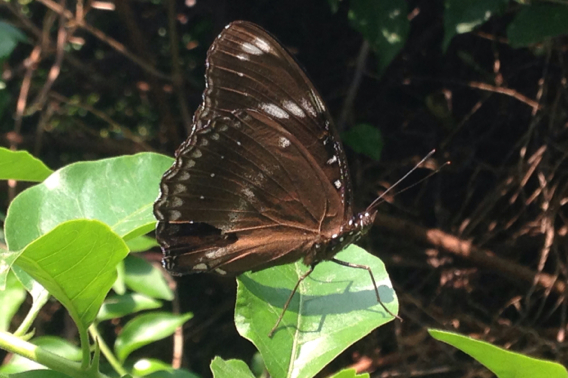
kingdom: Animalia
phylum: Arthropoda
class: Insecta
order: Lepidoptera
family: Nymphalidae
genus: Hypolimnas
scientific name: Hypolimnas bolina
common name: Great eggfly
